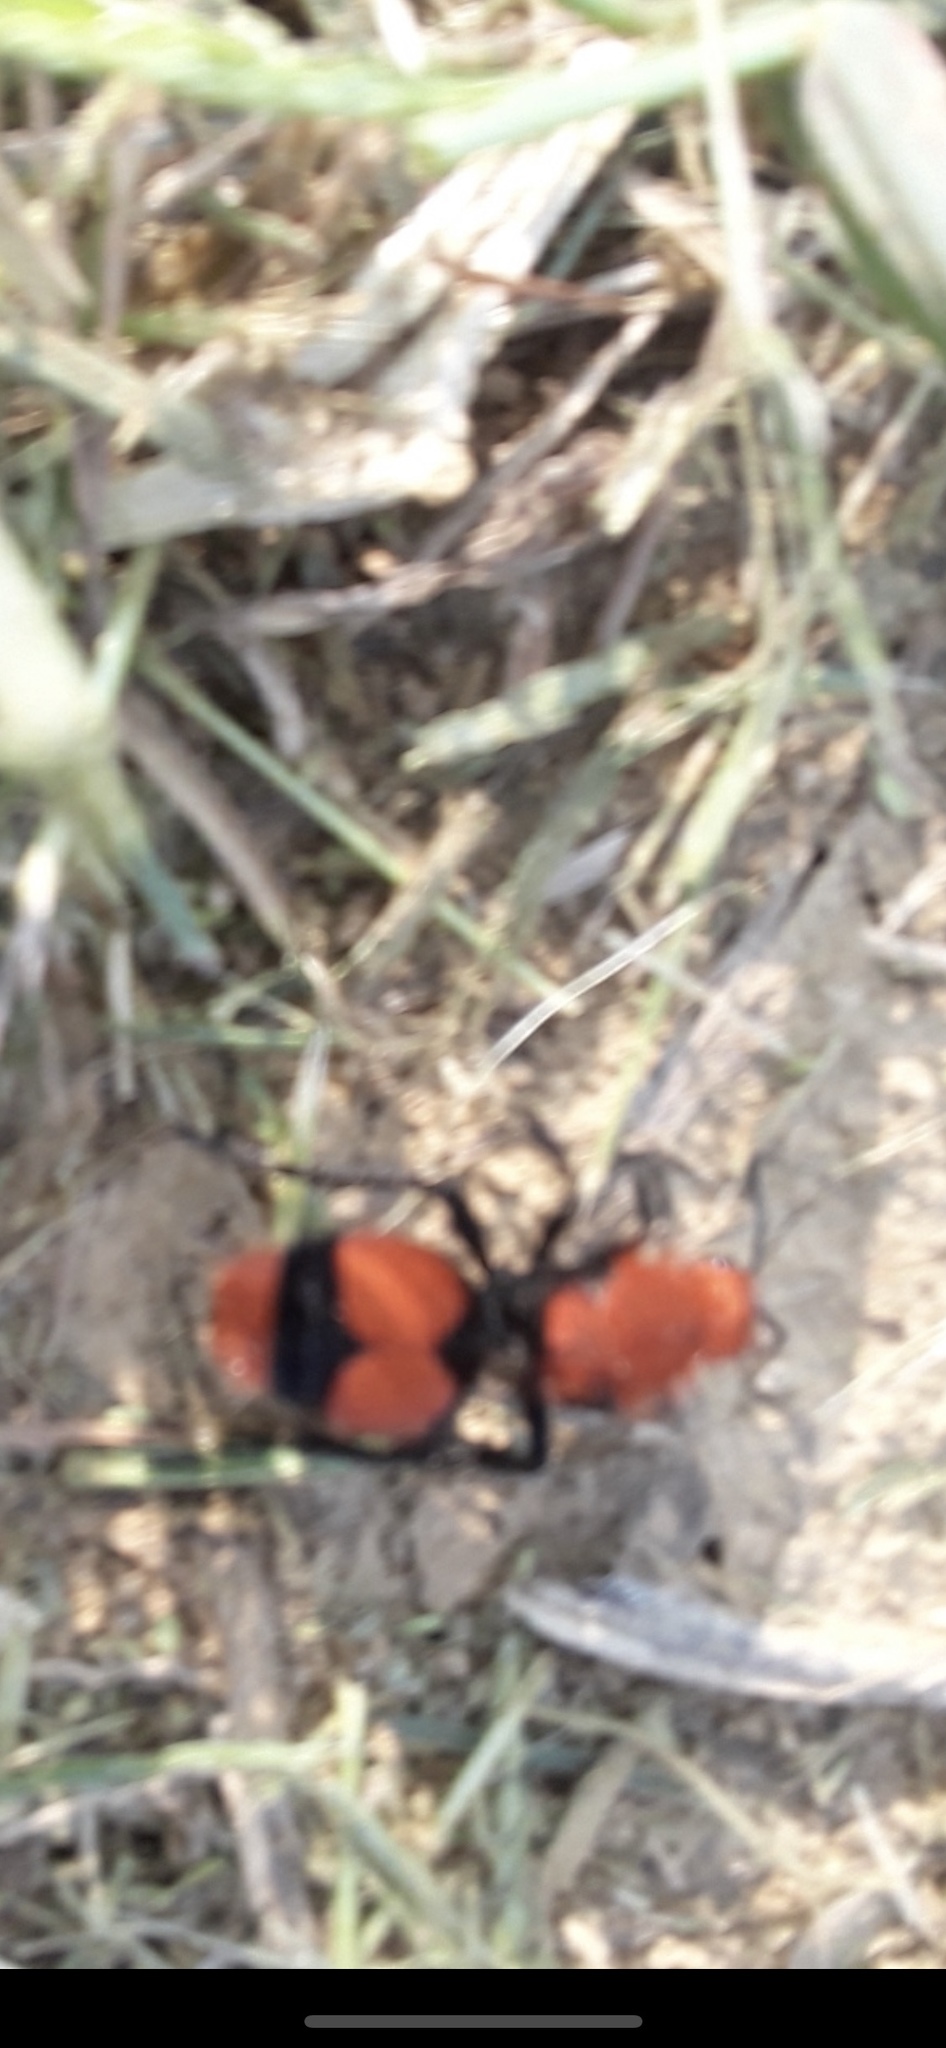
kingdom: Animalia
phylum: Arthropoda
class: Insecta
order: Hymenoptera
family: Mutillidae
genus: Dasymutilla
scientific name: Dasymutilla occidentalis
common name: Common eastern velvet ant
